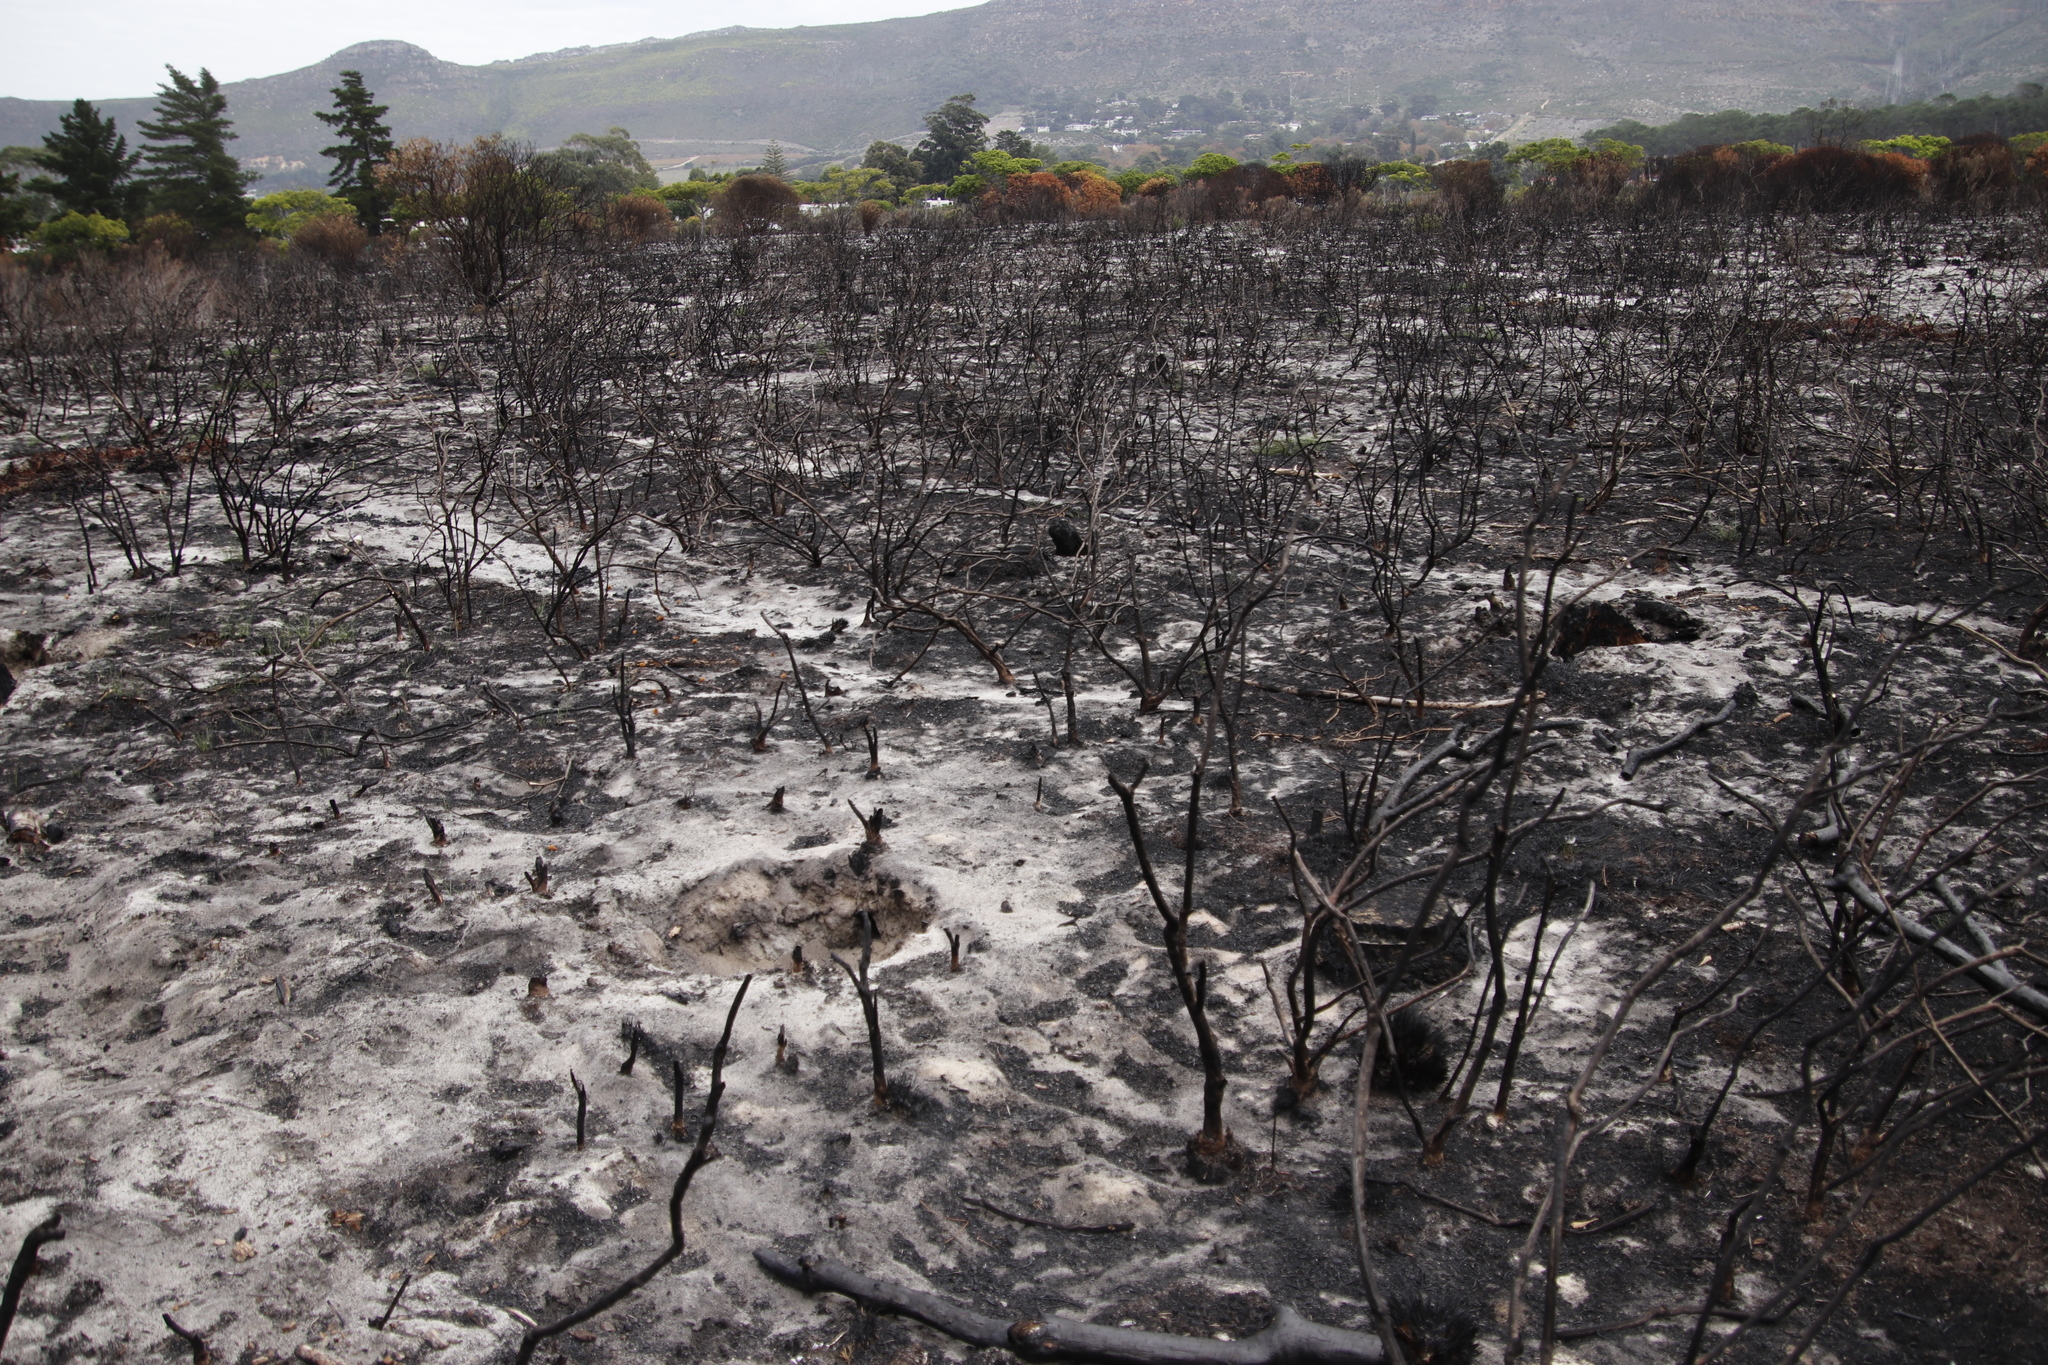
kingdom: Plantae
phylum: Tracheophyta
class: Magnoliopsida
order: Asterales
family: Asteraceae
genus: Metalasia
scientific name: Metalasia densa
